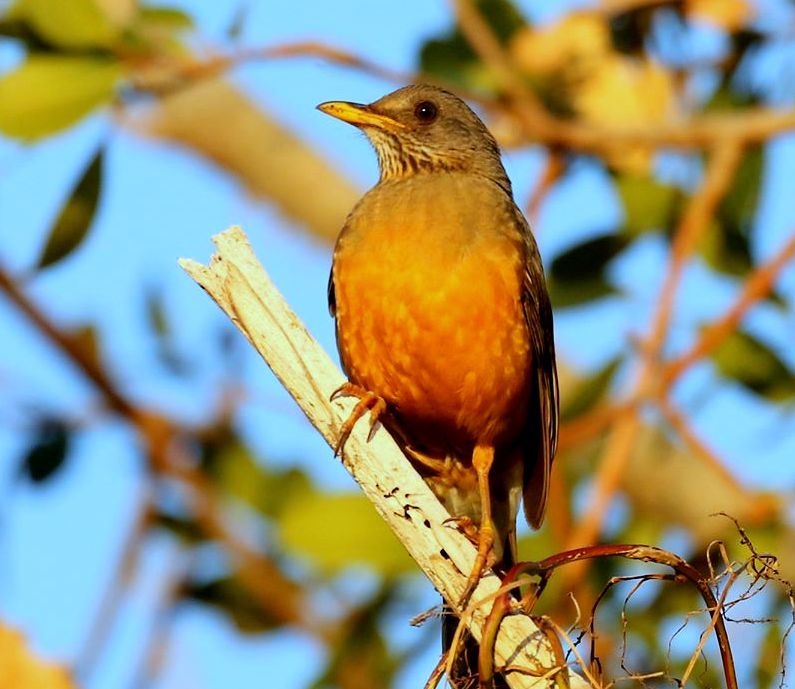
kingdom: Animalia
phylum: Chordata
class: Aves
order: Passeriformes
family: Turdidae
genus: Turdus
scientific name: Turdus olivaceus
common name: Olive thrush
